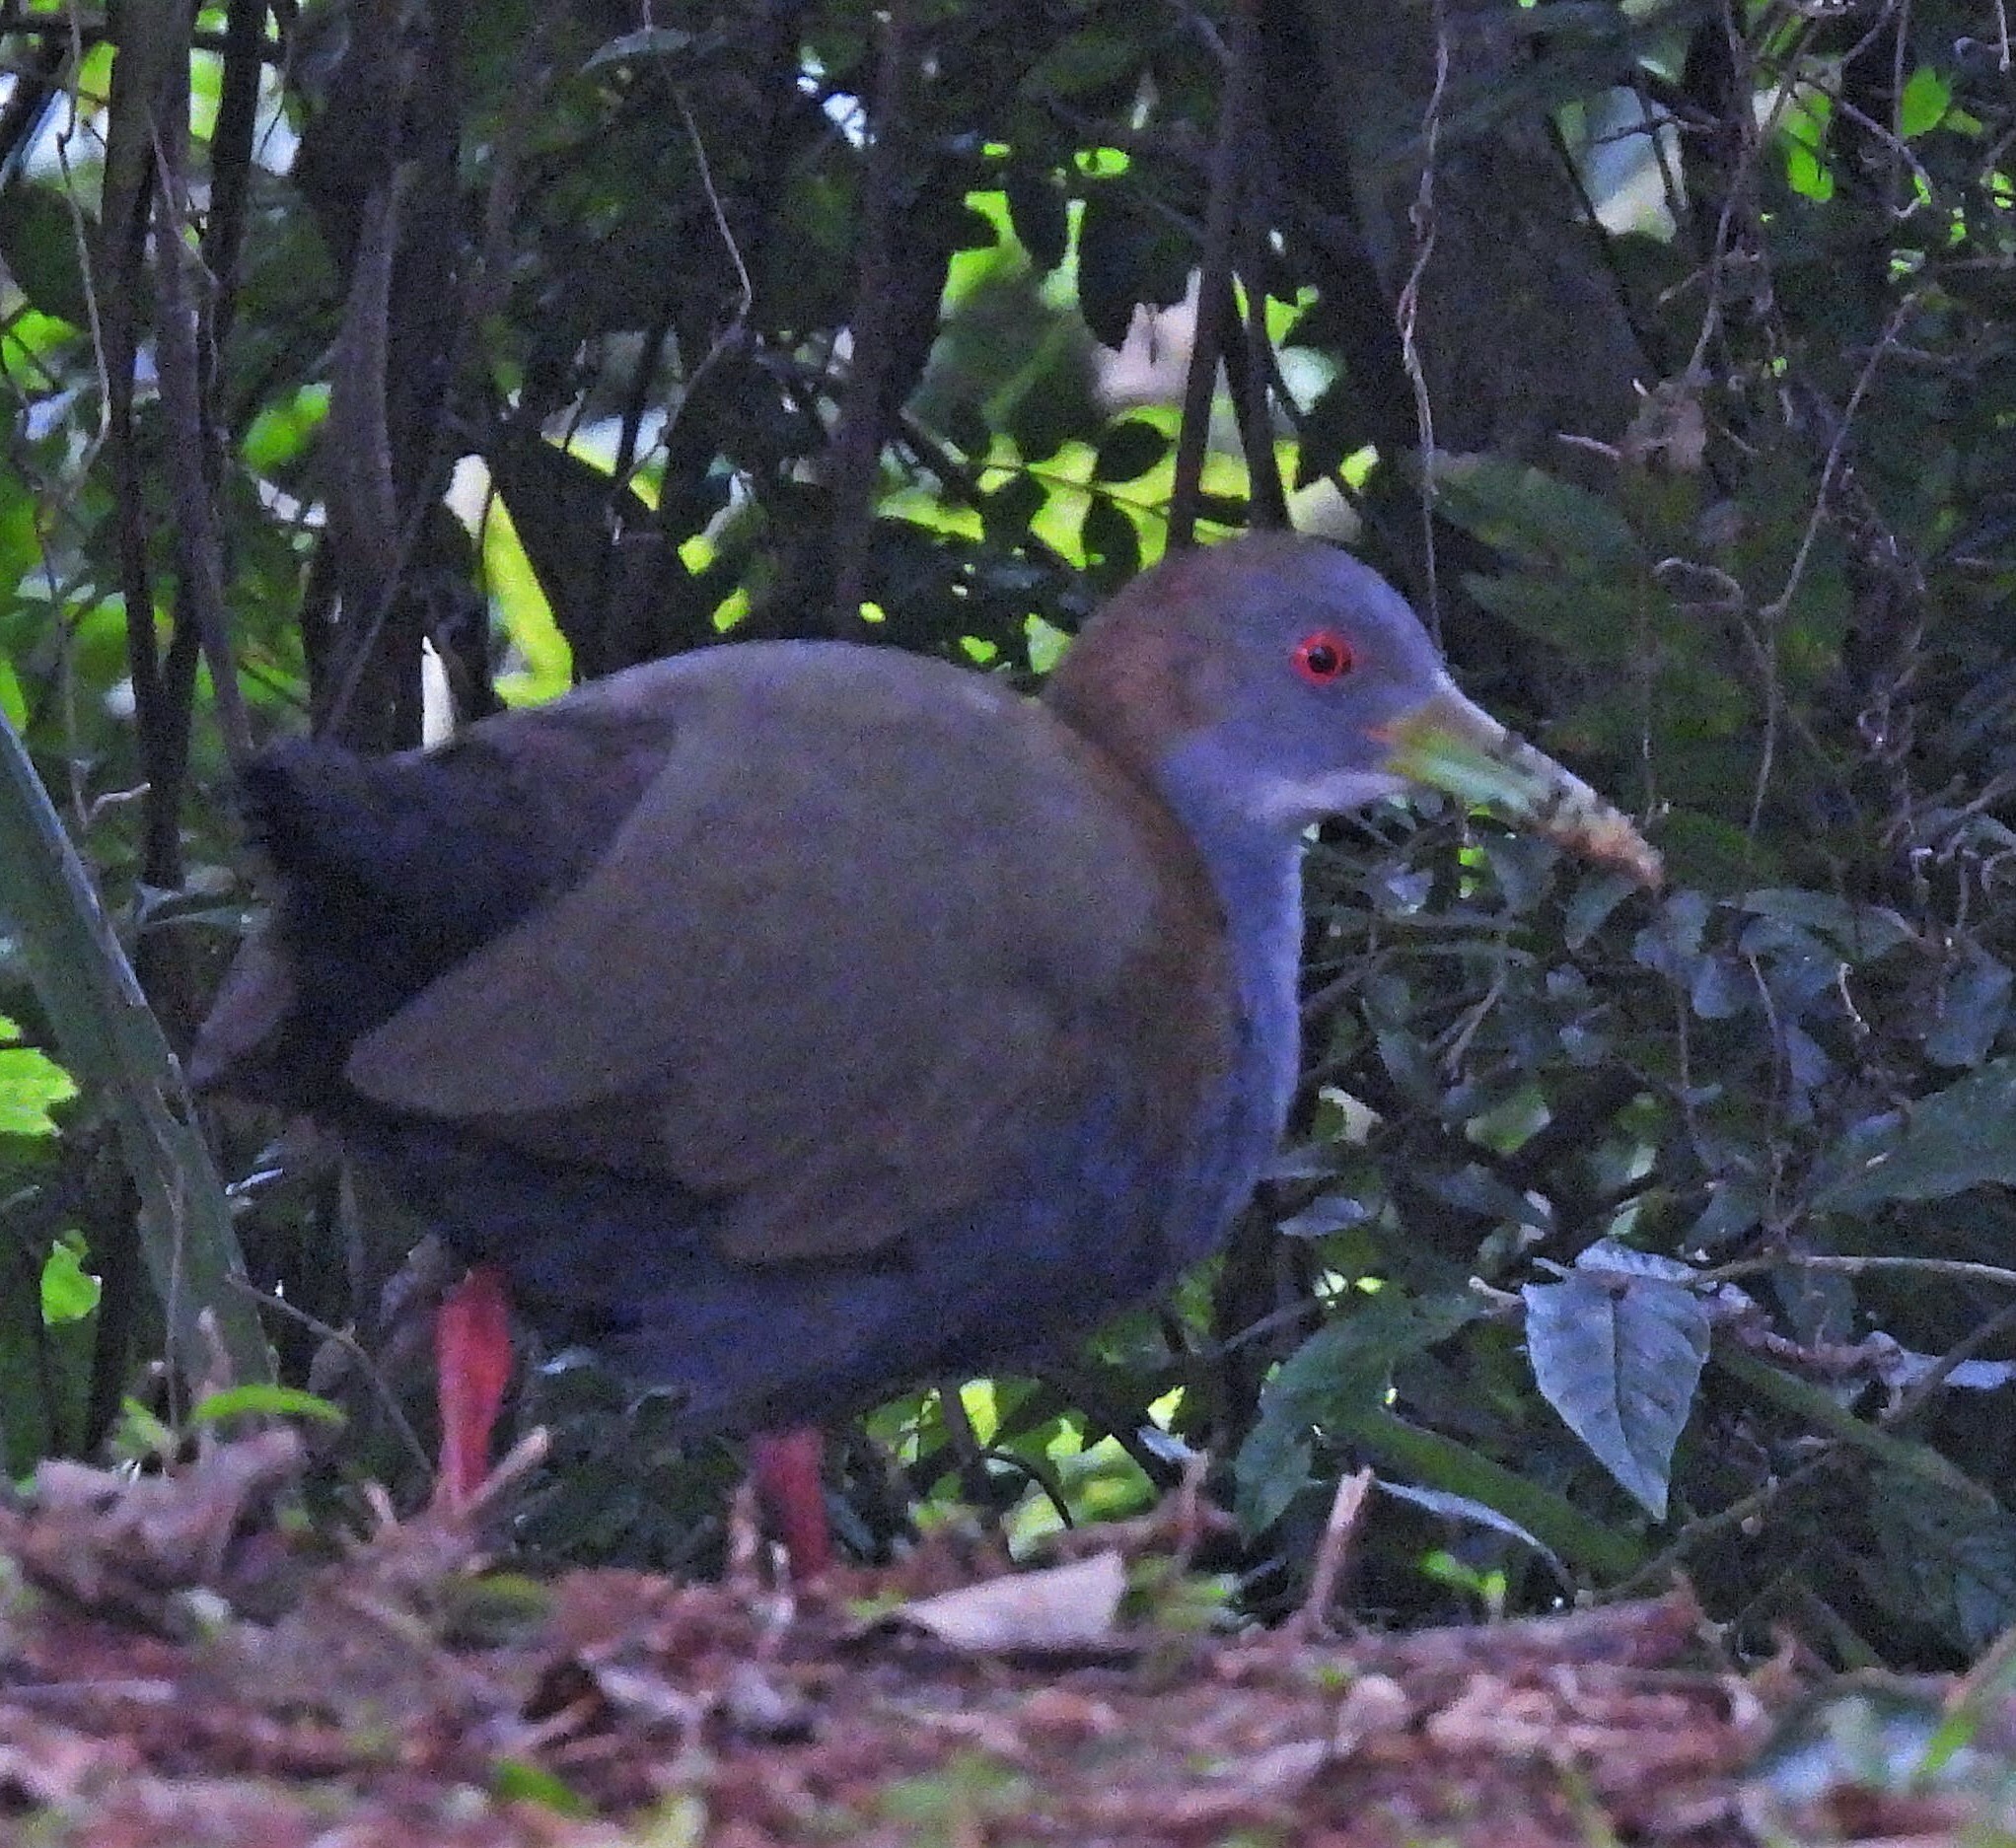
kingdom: Animalia
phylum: Chordata
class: Aves
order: Gruiformes
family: Rallidae
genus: Aramides
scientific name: Aramides saracura
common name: Slaty-breasted wood rail
